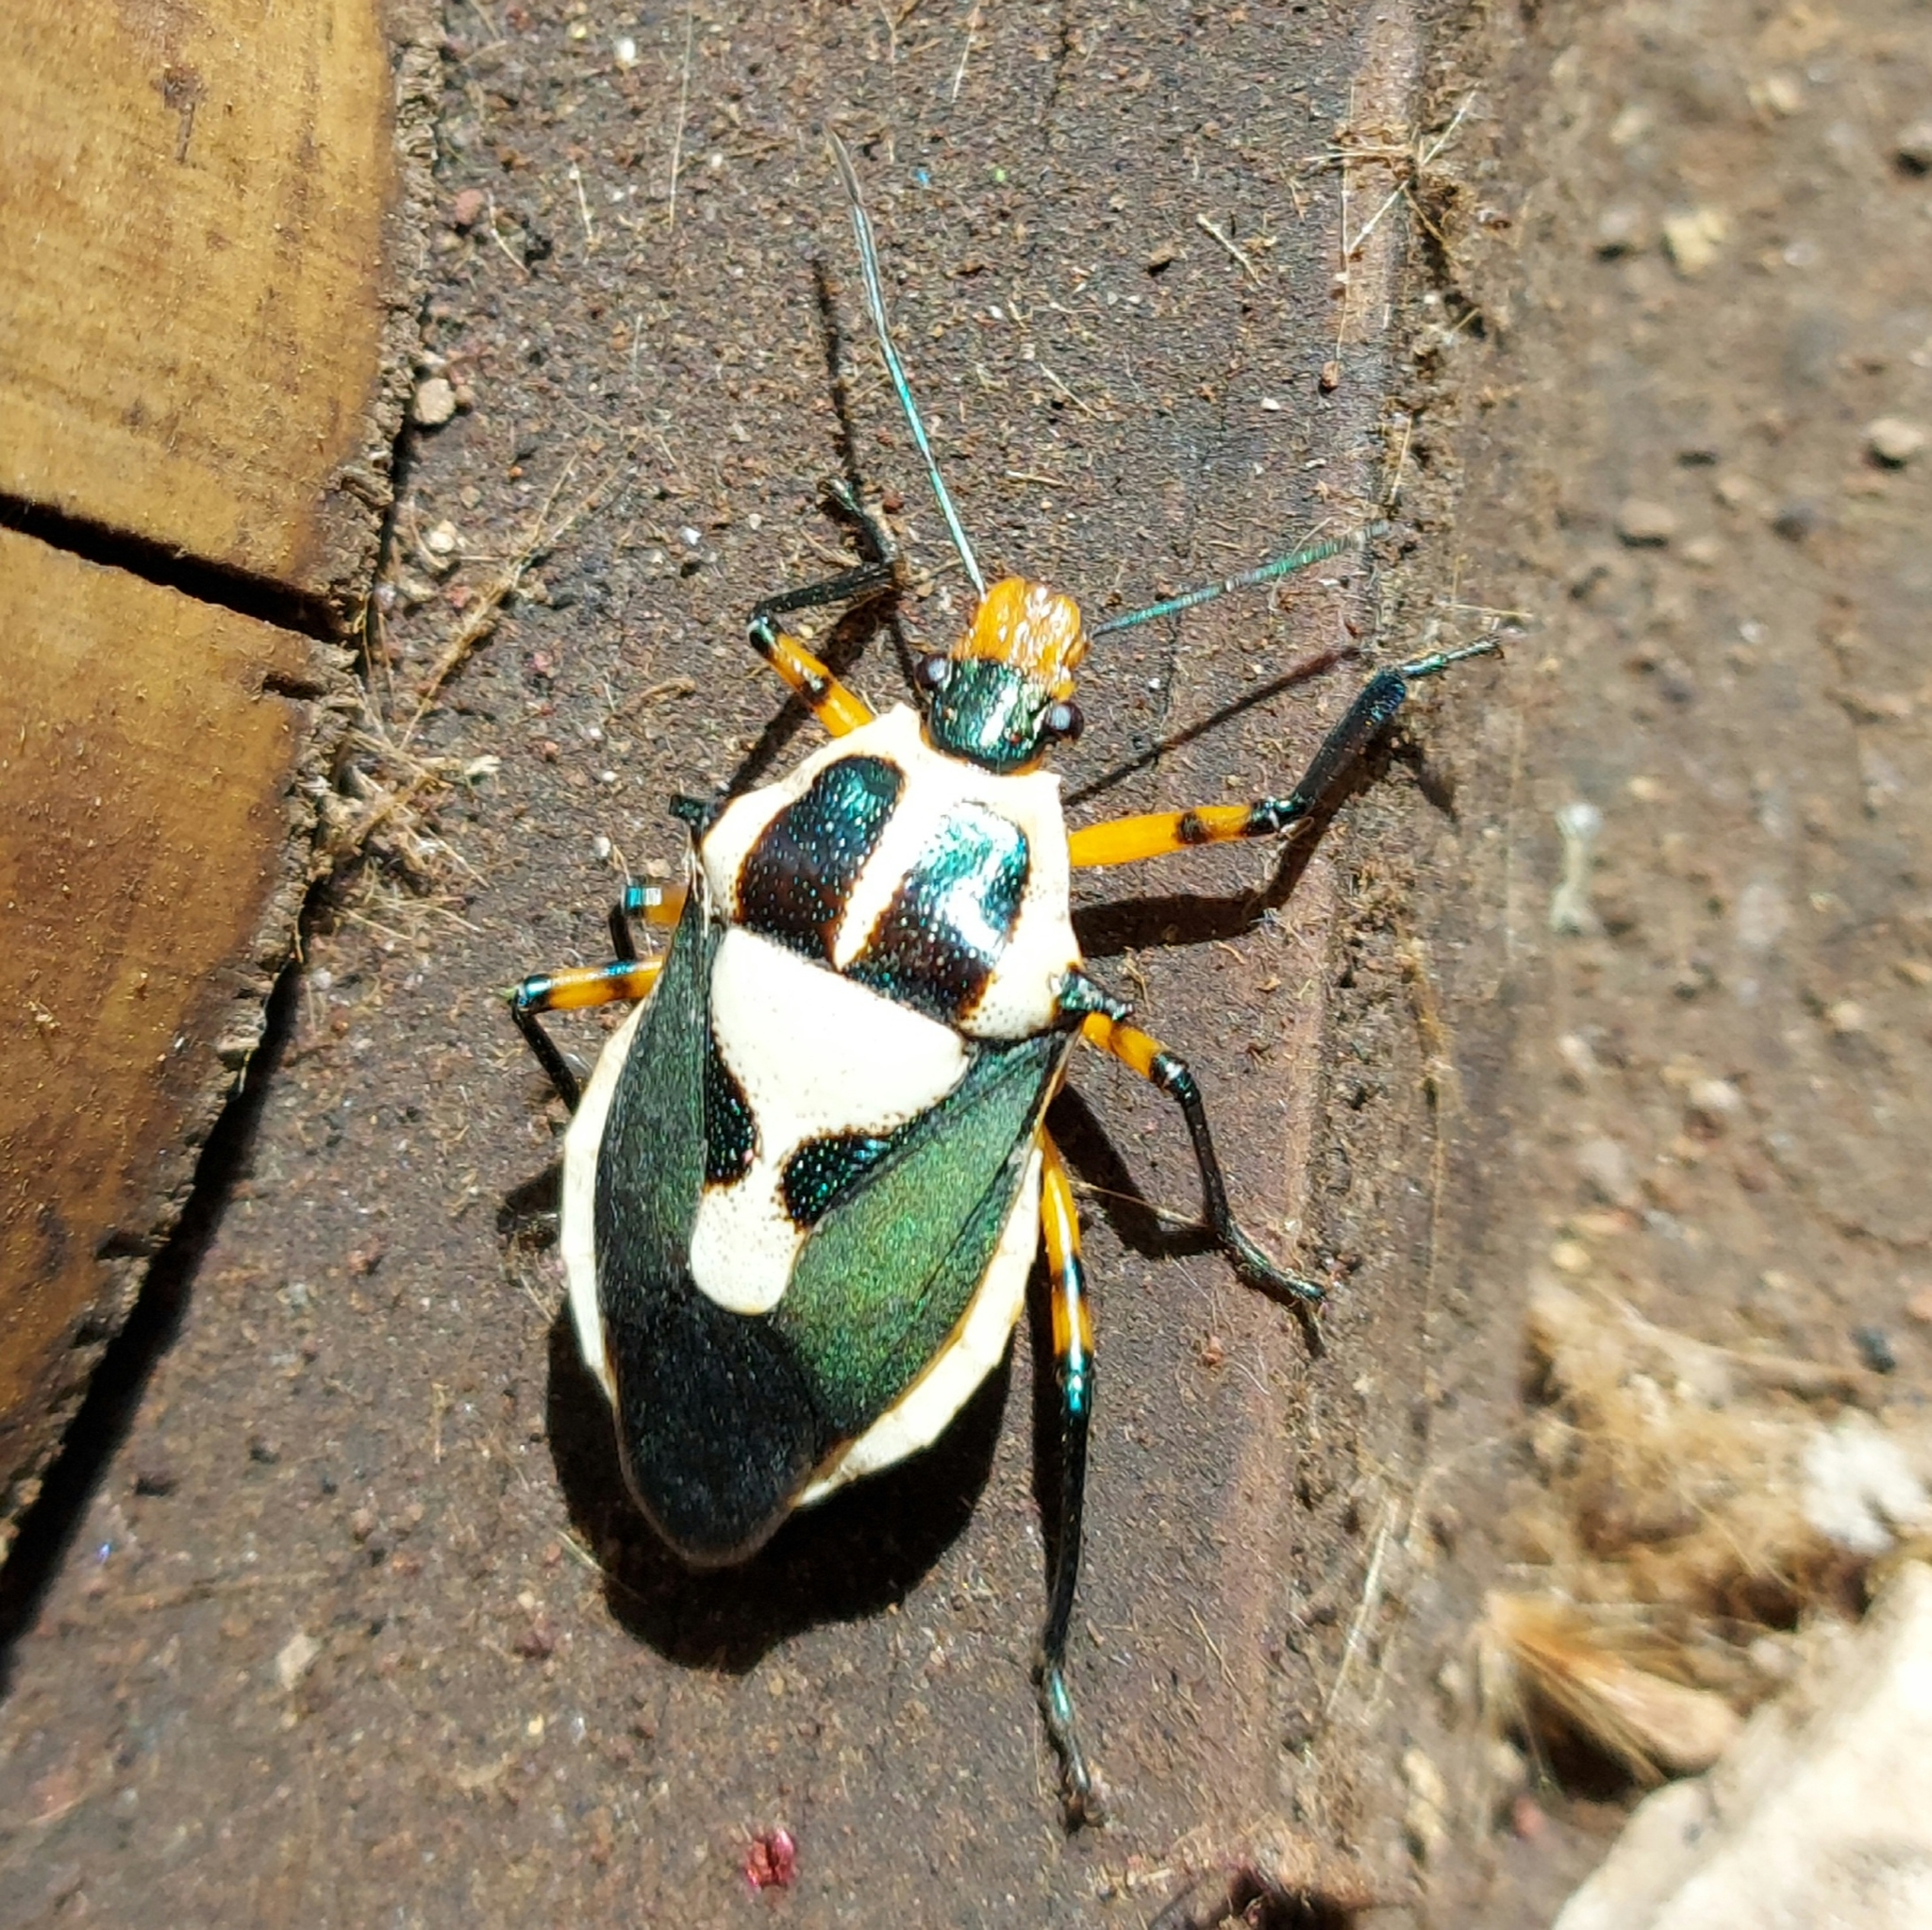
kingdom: Animalia
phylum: Arthropoda
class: Insecta
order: Hemiptera
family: Pentatomidae
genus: Euthyrhynchus
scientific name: Euthyrhynchus floridanus
